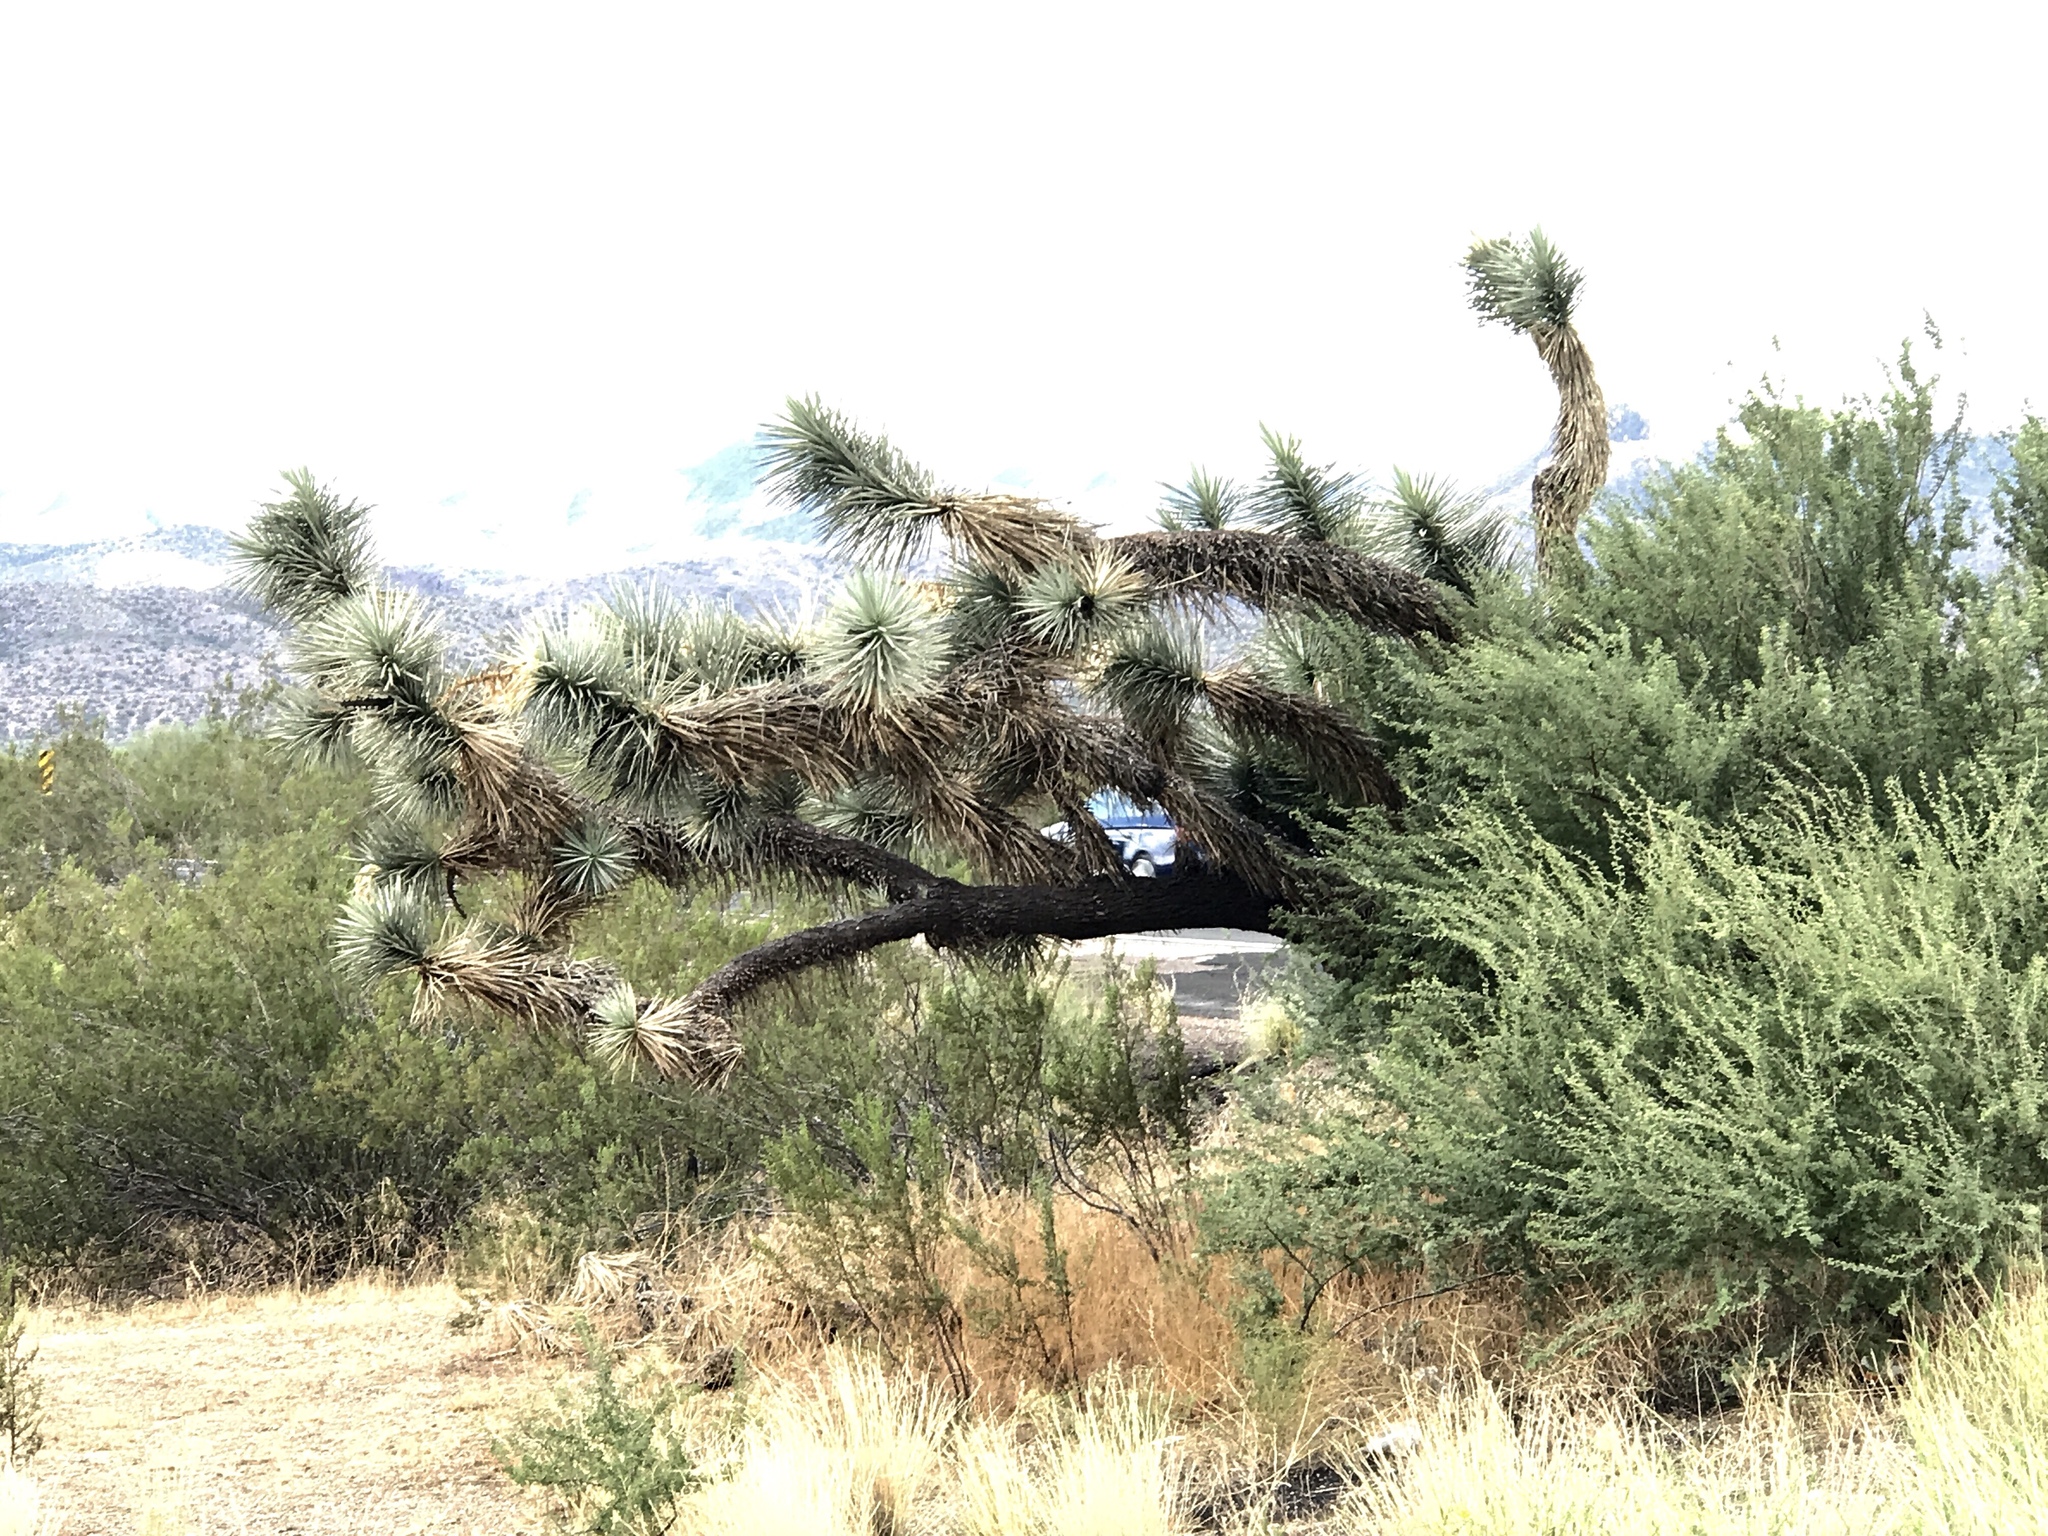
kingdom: Plantae
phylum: Tracheophyta
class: Liliopsida
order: Asparagales
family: Asparagaceae
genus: Yucca
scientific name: Yucca brevifolia
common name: Joshua tree
